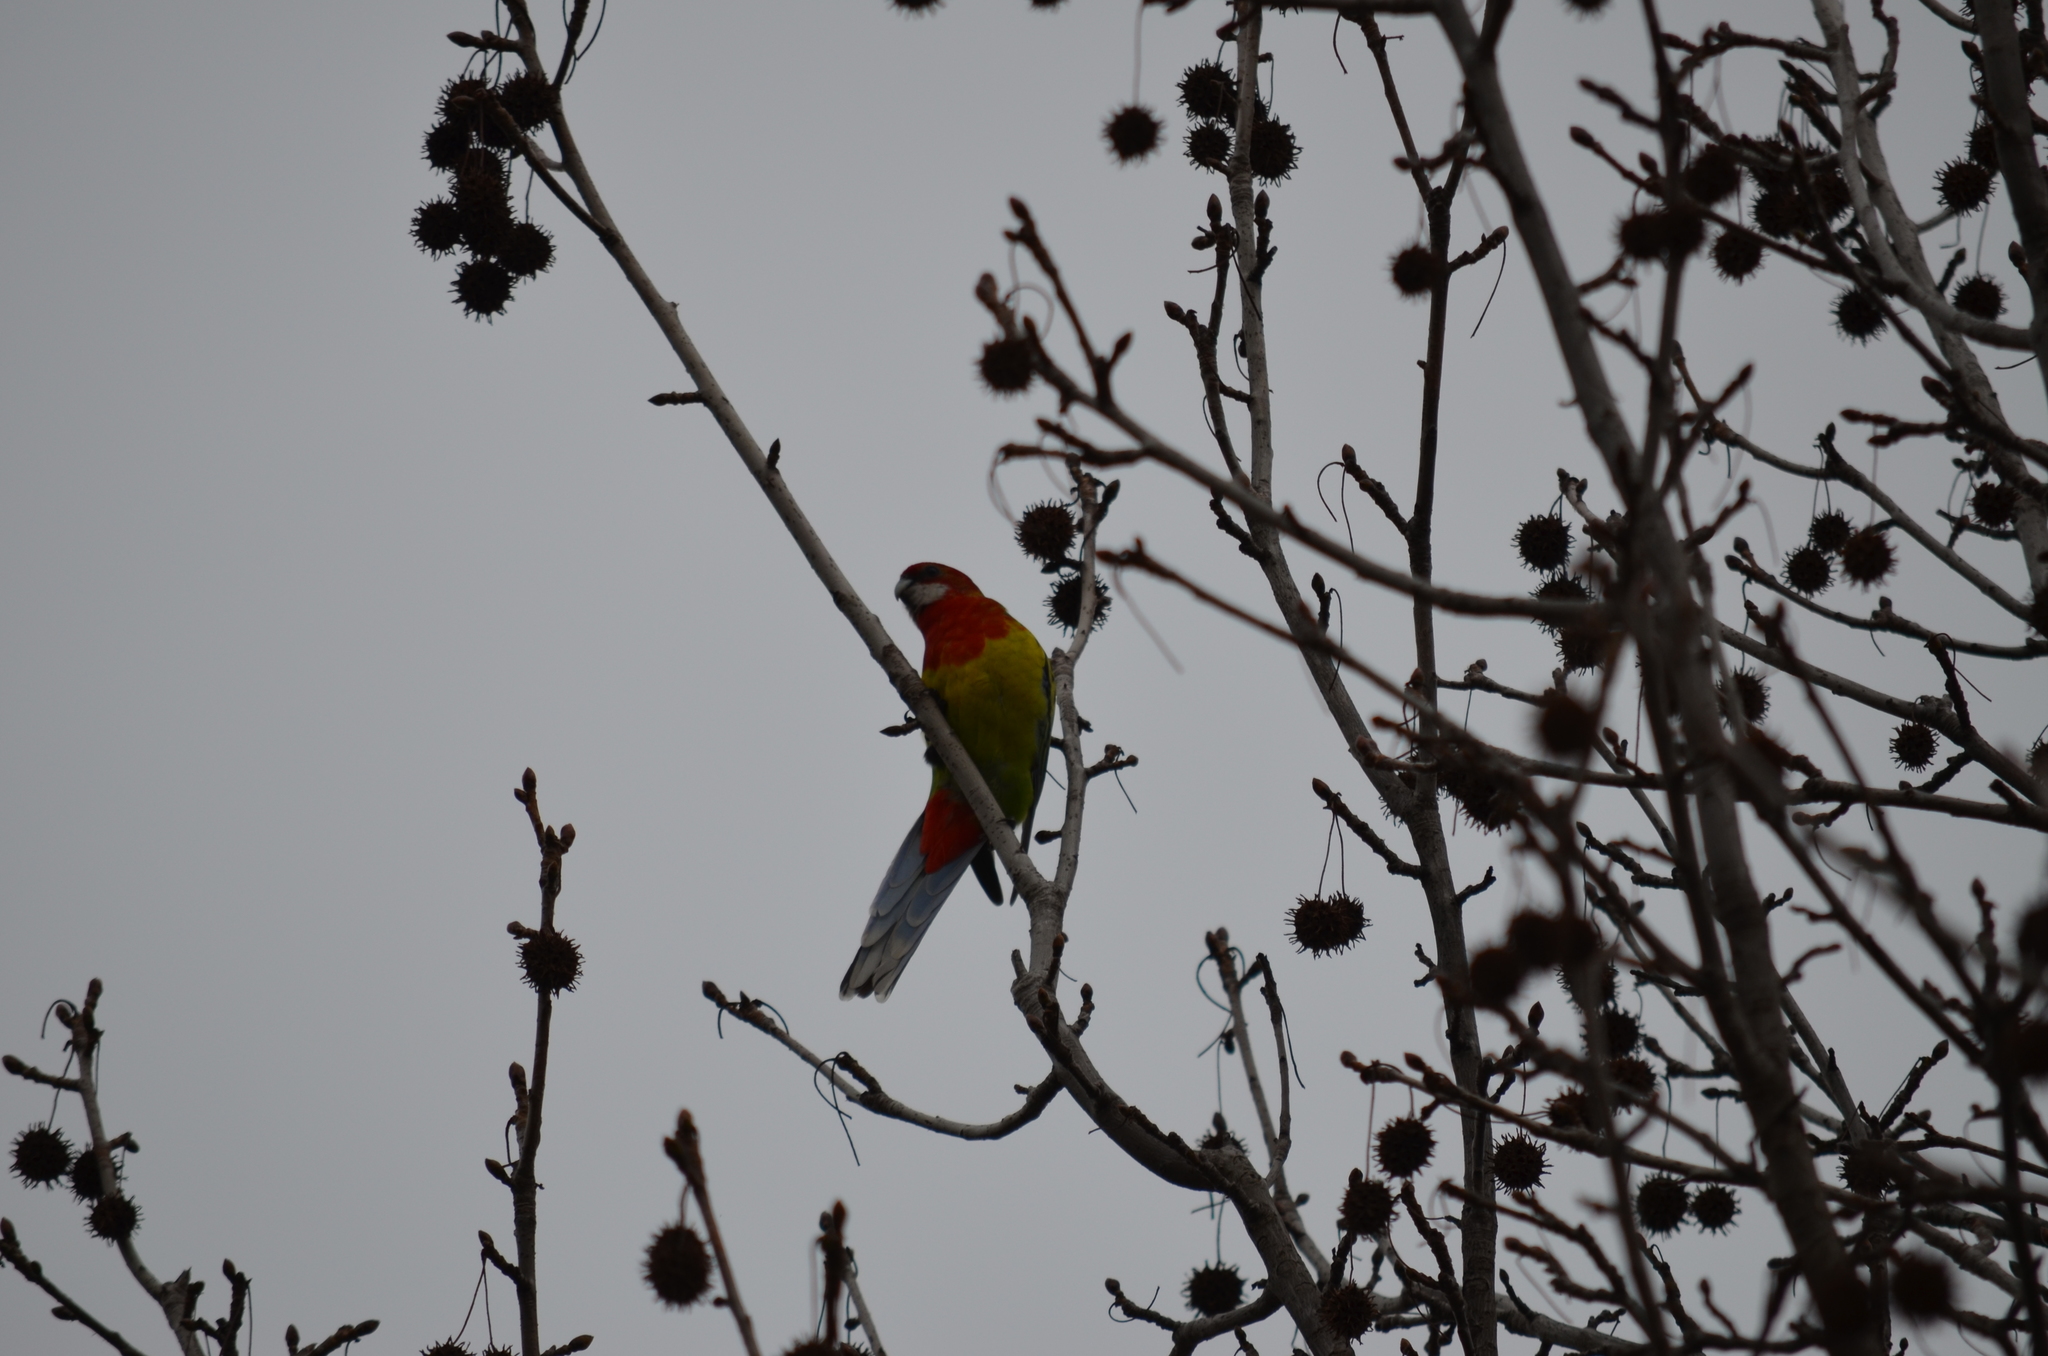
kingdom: Animalia
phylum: Chordata
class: Aves
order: Psittaciformes
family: Psittacidae
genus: Platycercus
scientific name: Platycercus eximius
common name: Eastern rosella
